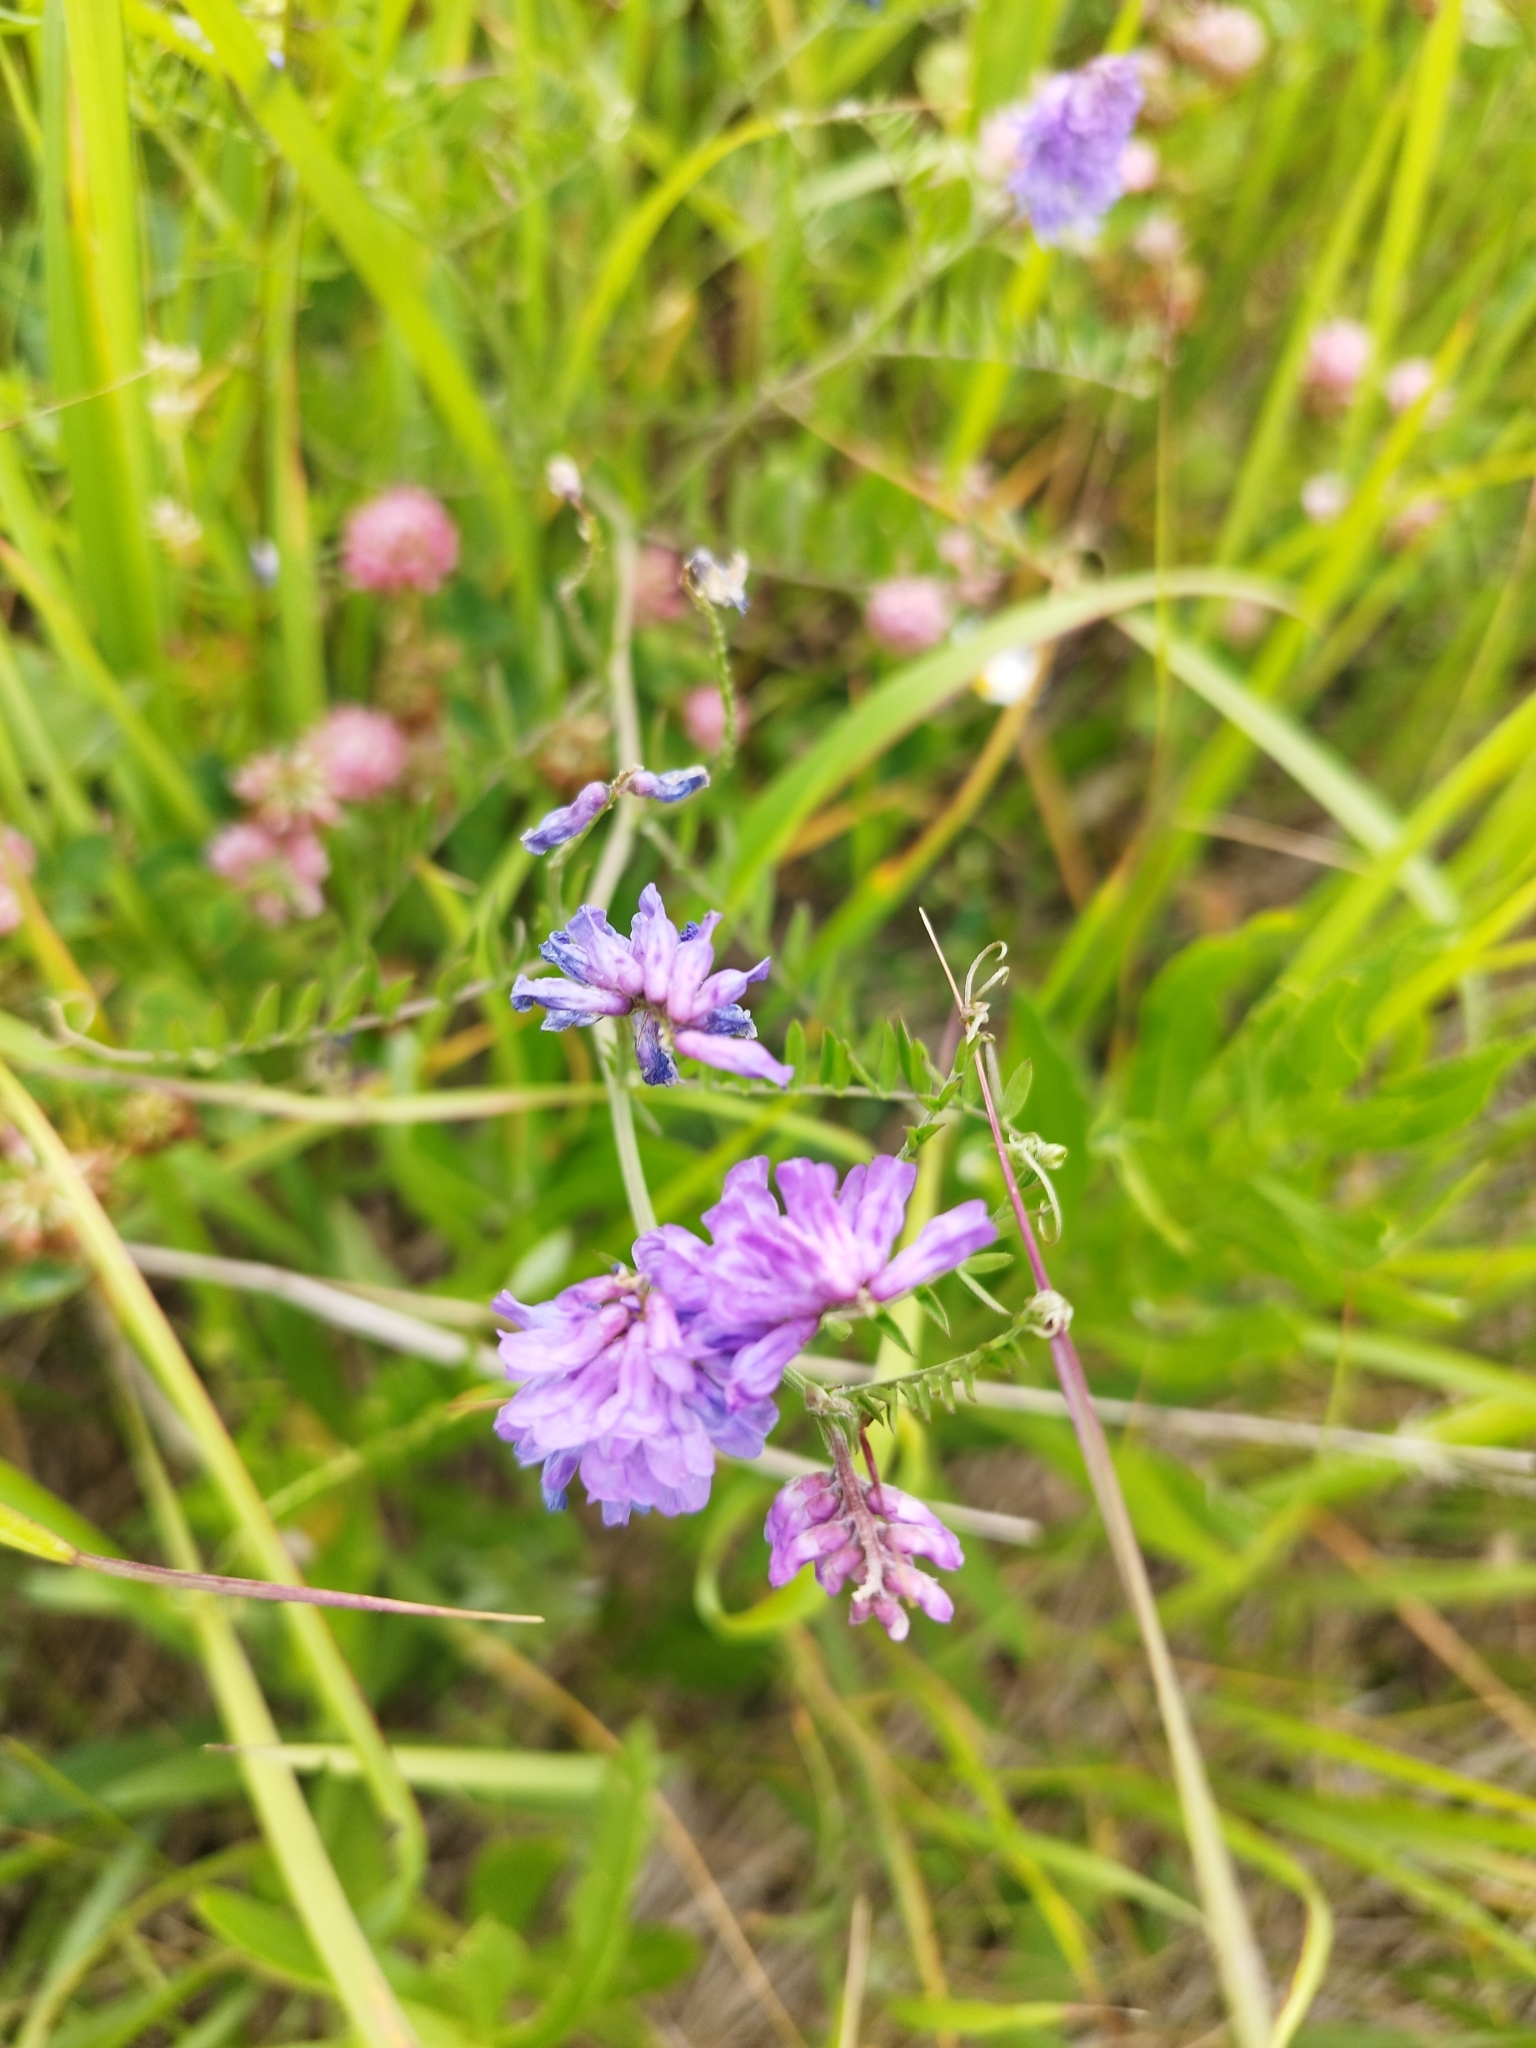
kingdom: Plantae
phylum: Tracheophyta
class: Magnoliopsida
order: Fabales
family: Fabaceae
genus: Vicia
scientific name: Vicia cracca
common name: Bird vetch
